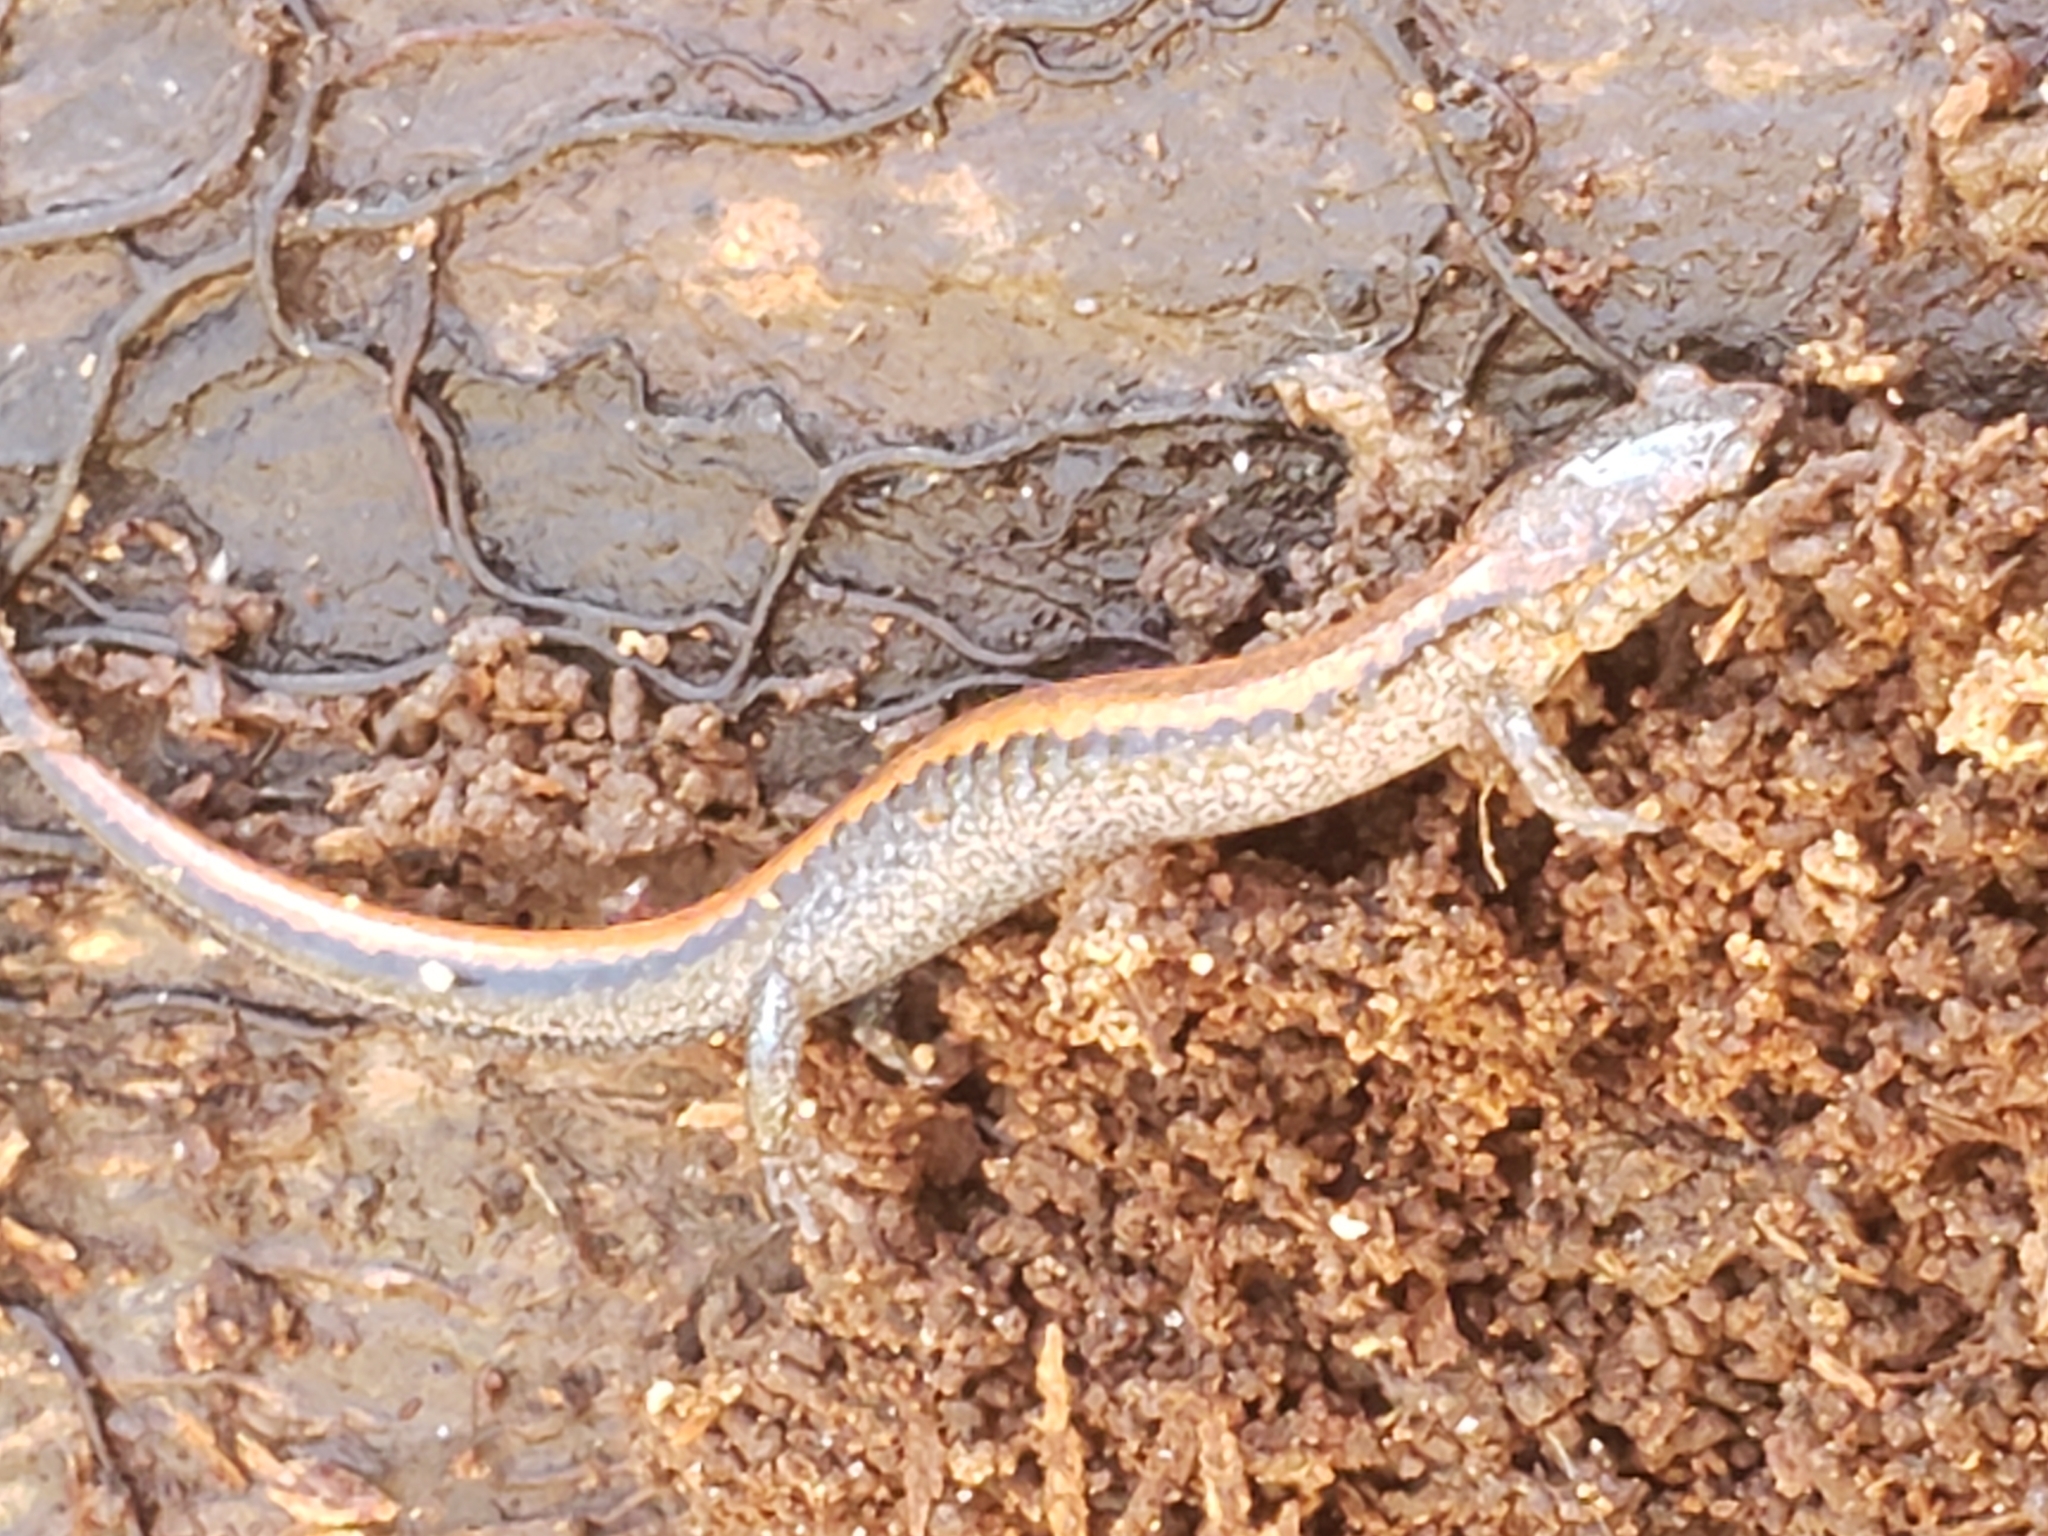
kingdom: Animalia
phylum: Chordata
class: Amphibia
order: Caudata
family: Plethodontidae
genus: Plethodon
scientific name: Plethodon cinereus
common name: Redback salamander
